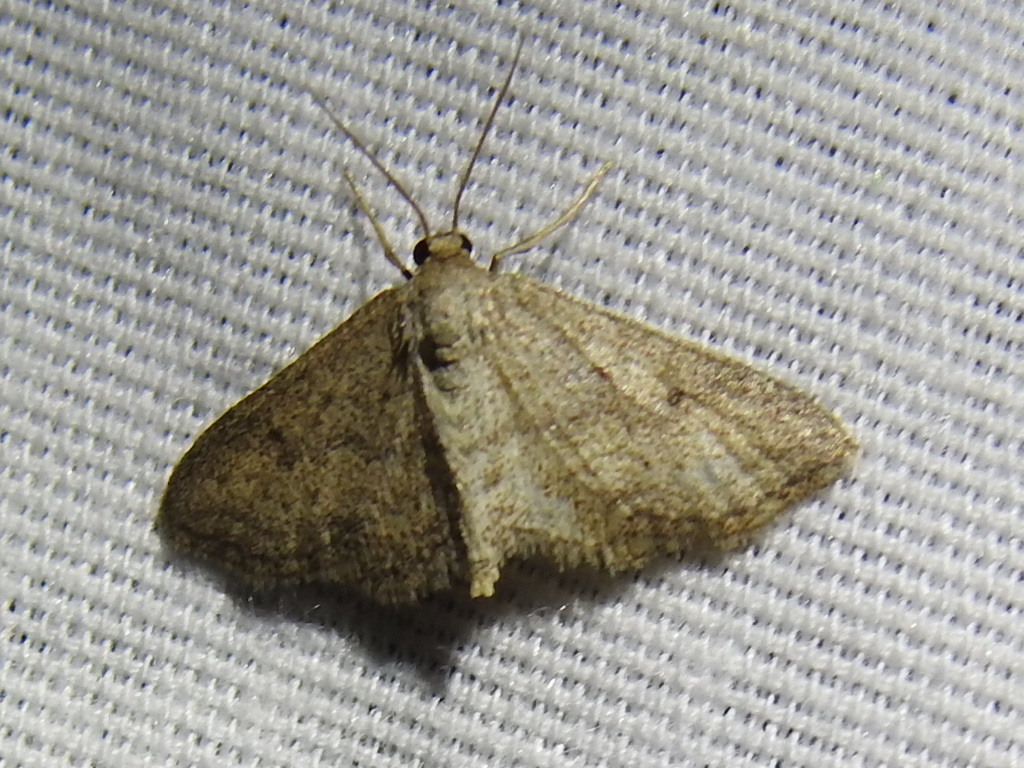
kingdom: Animalia
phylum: Arthropoda
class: Insecta
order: Lepidoptera
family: Geometridae
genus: Lobocleta
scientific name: Lobocleta ossularia
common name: Drab brown wave
